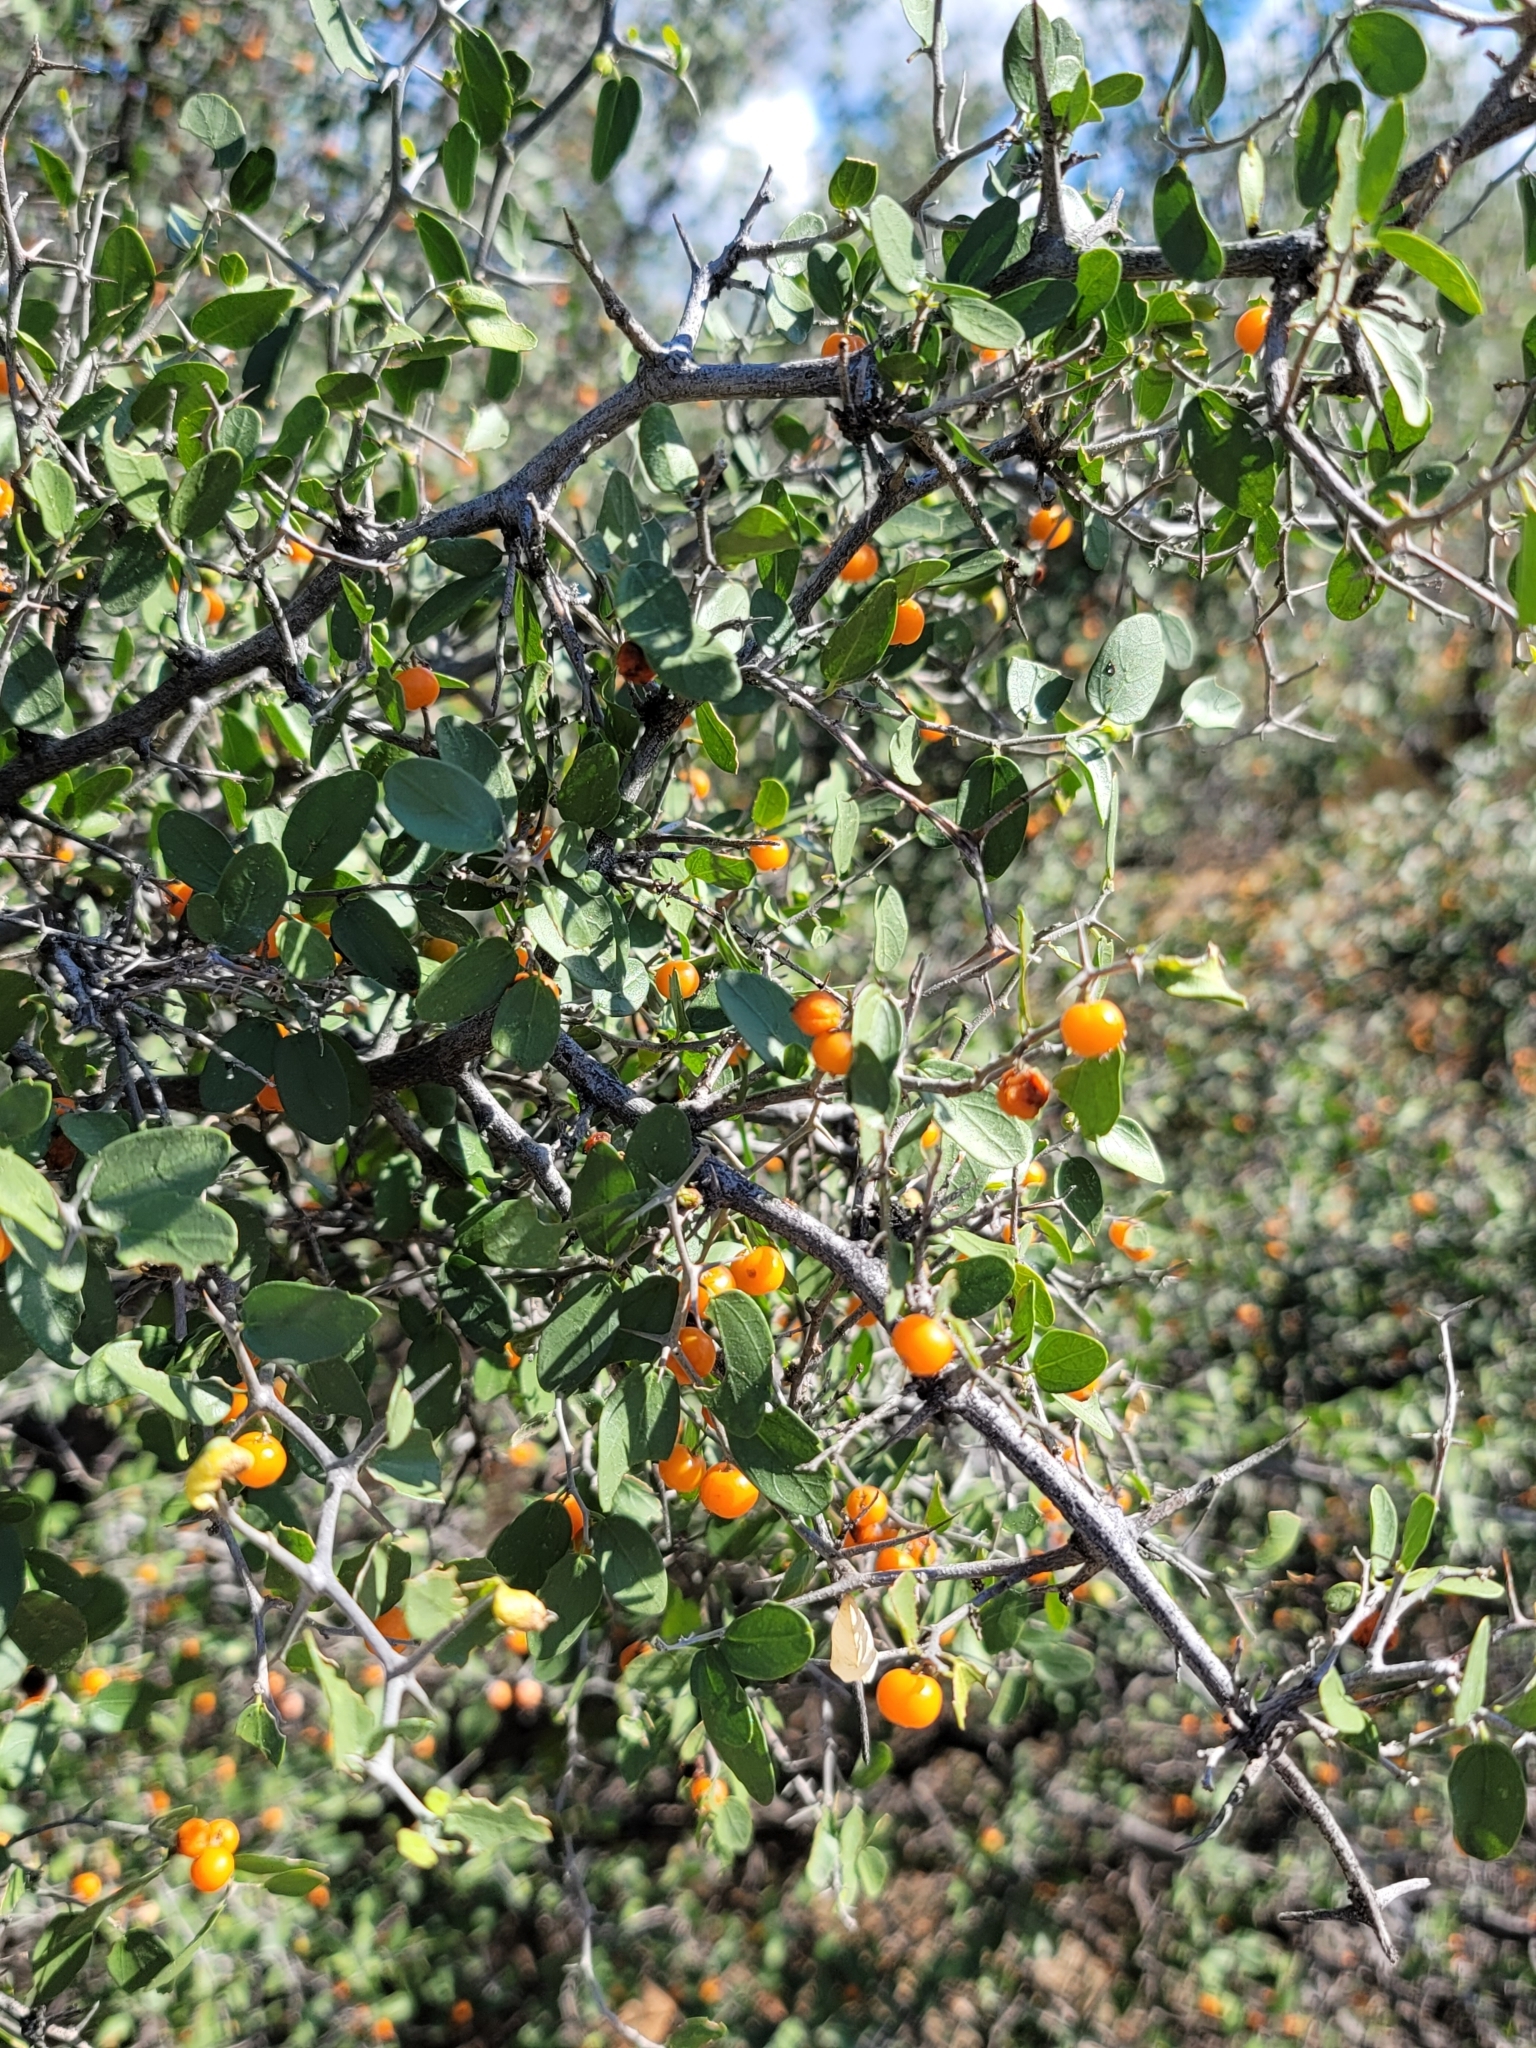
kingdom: Plantae
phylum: Tracheophyta
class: Magnoliopsida
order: Rosales
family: Cannabaceae
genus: Celtis
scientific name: Celtis pallida
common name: Desert hackberry
